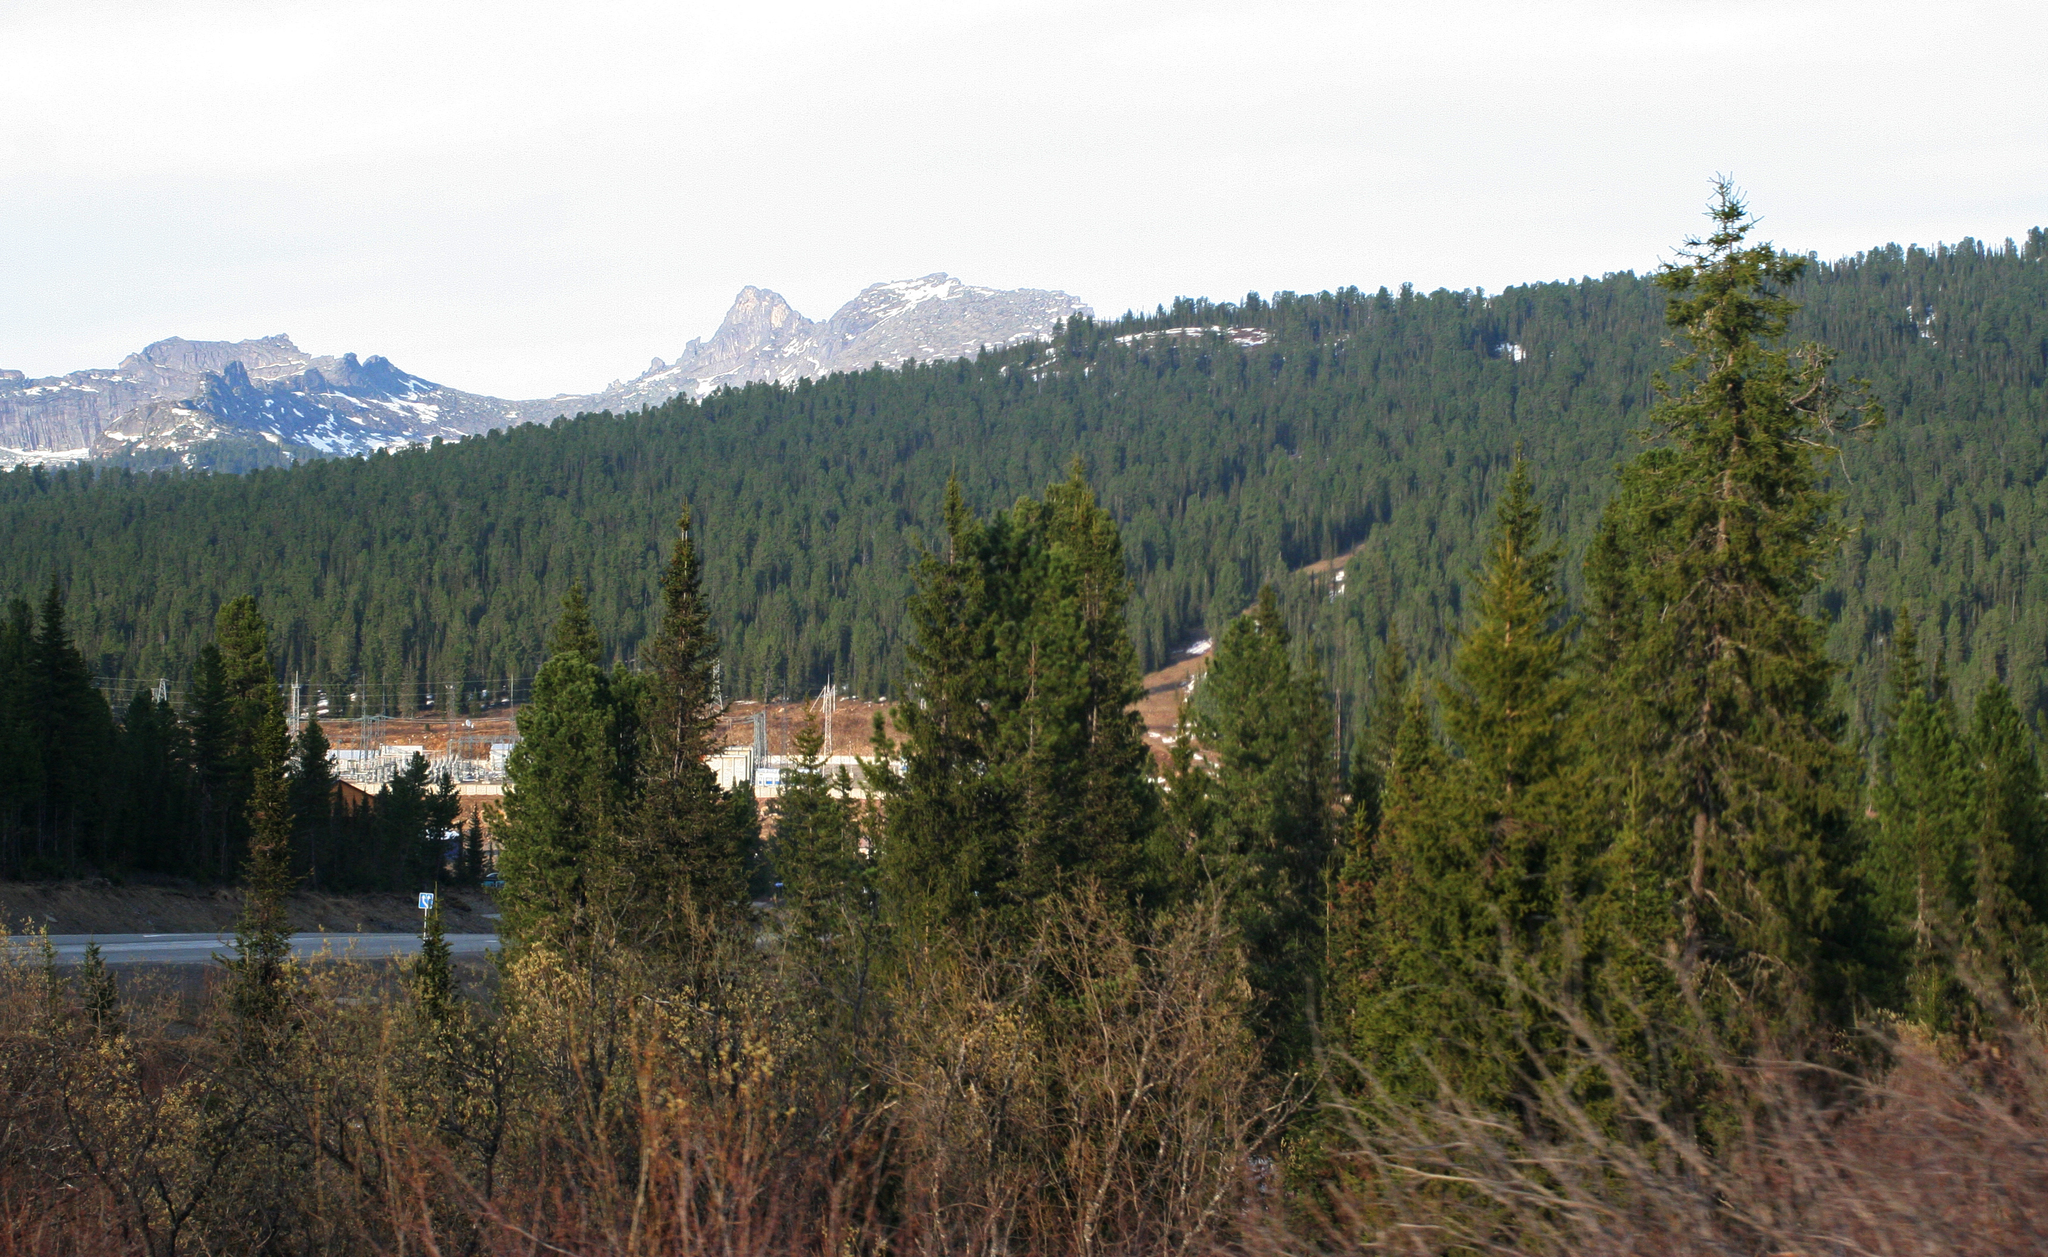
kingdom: Plantae
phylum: Tracheophyta
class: Pinopsida
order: Pinales
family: Pinaceae
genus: Picea
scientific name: Picea obovata
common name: Siberian spruce
